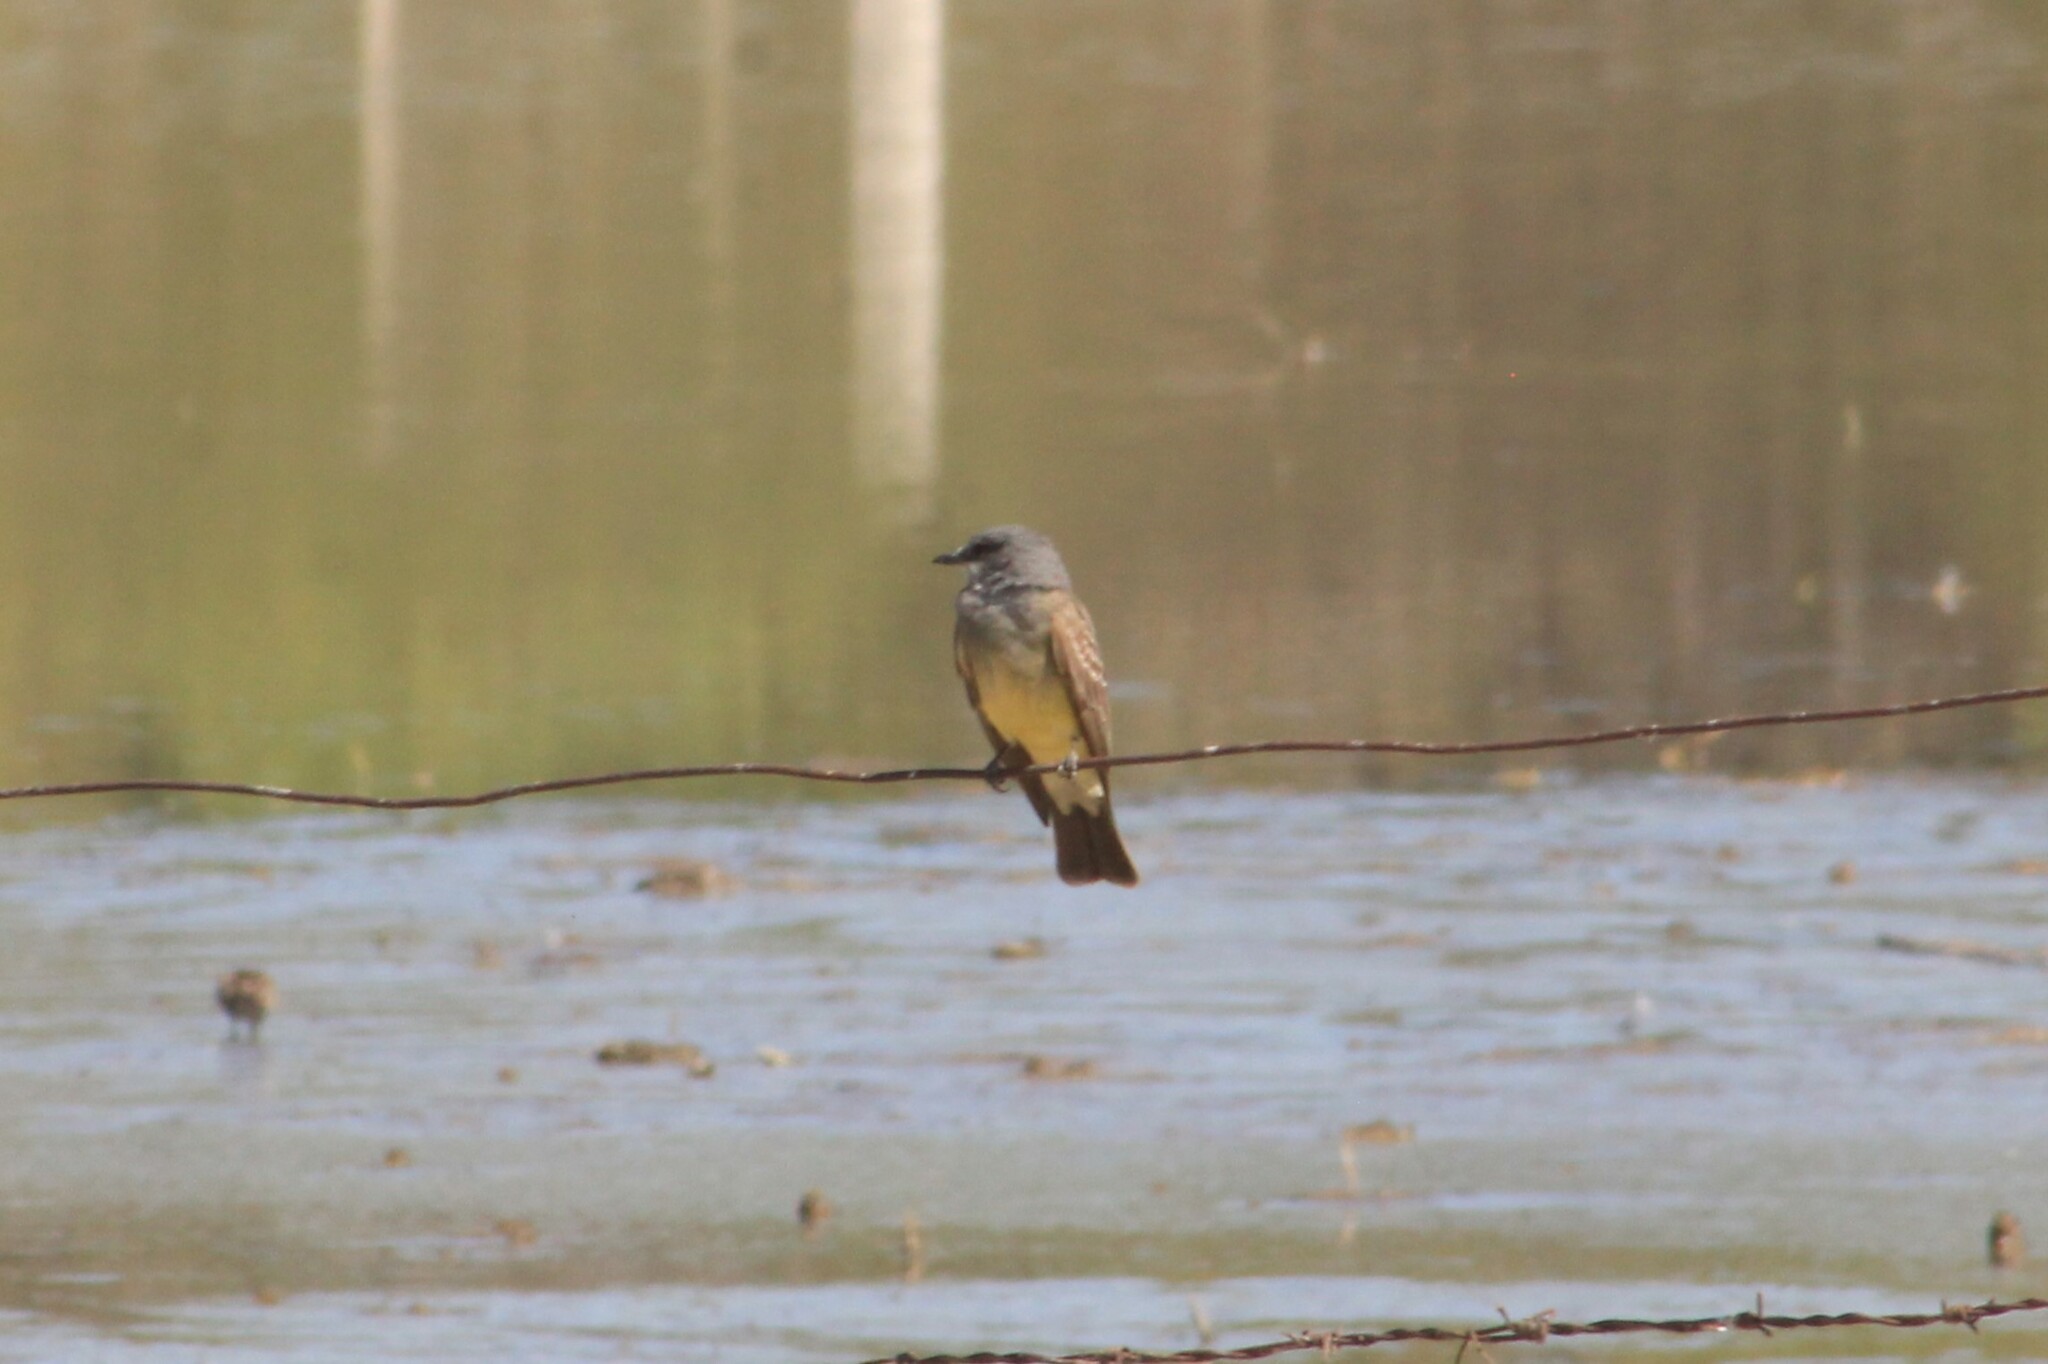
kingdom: Animalia
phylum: Chordata
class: Aves
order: Passeriformes
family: Tyrannidae
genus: Tyrannus
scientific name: Tyrannus vociferans
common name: Cassin's kingbird
